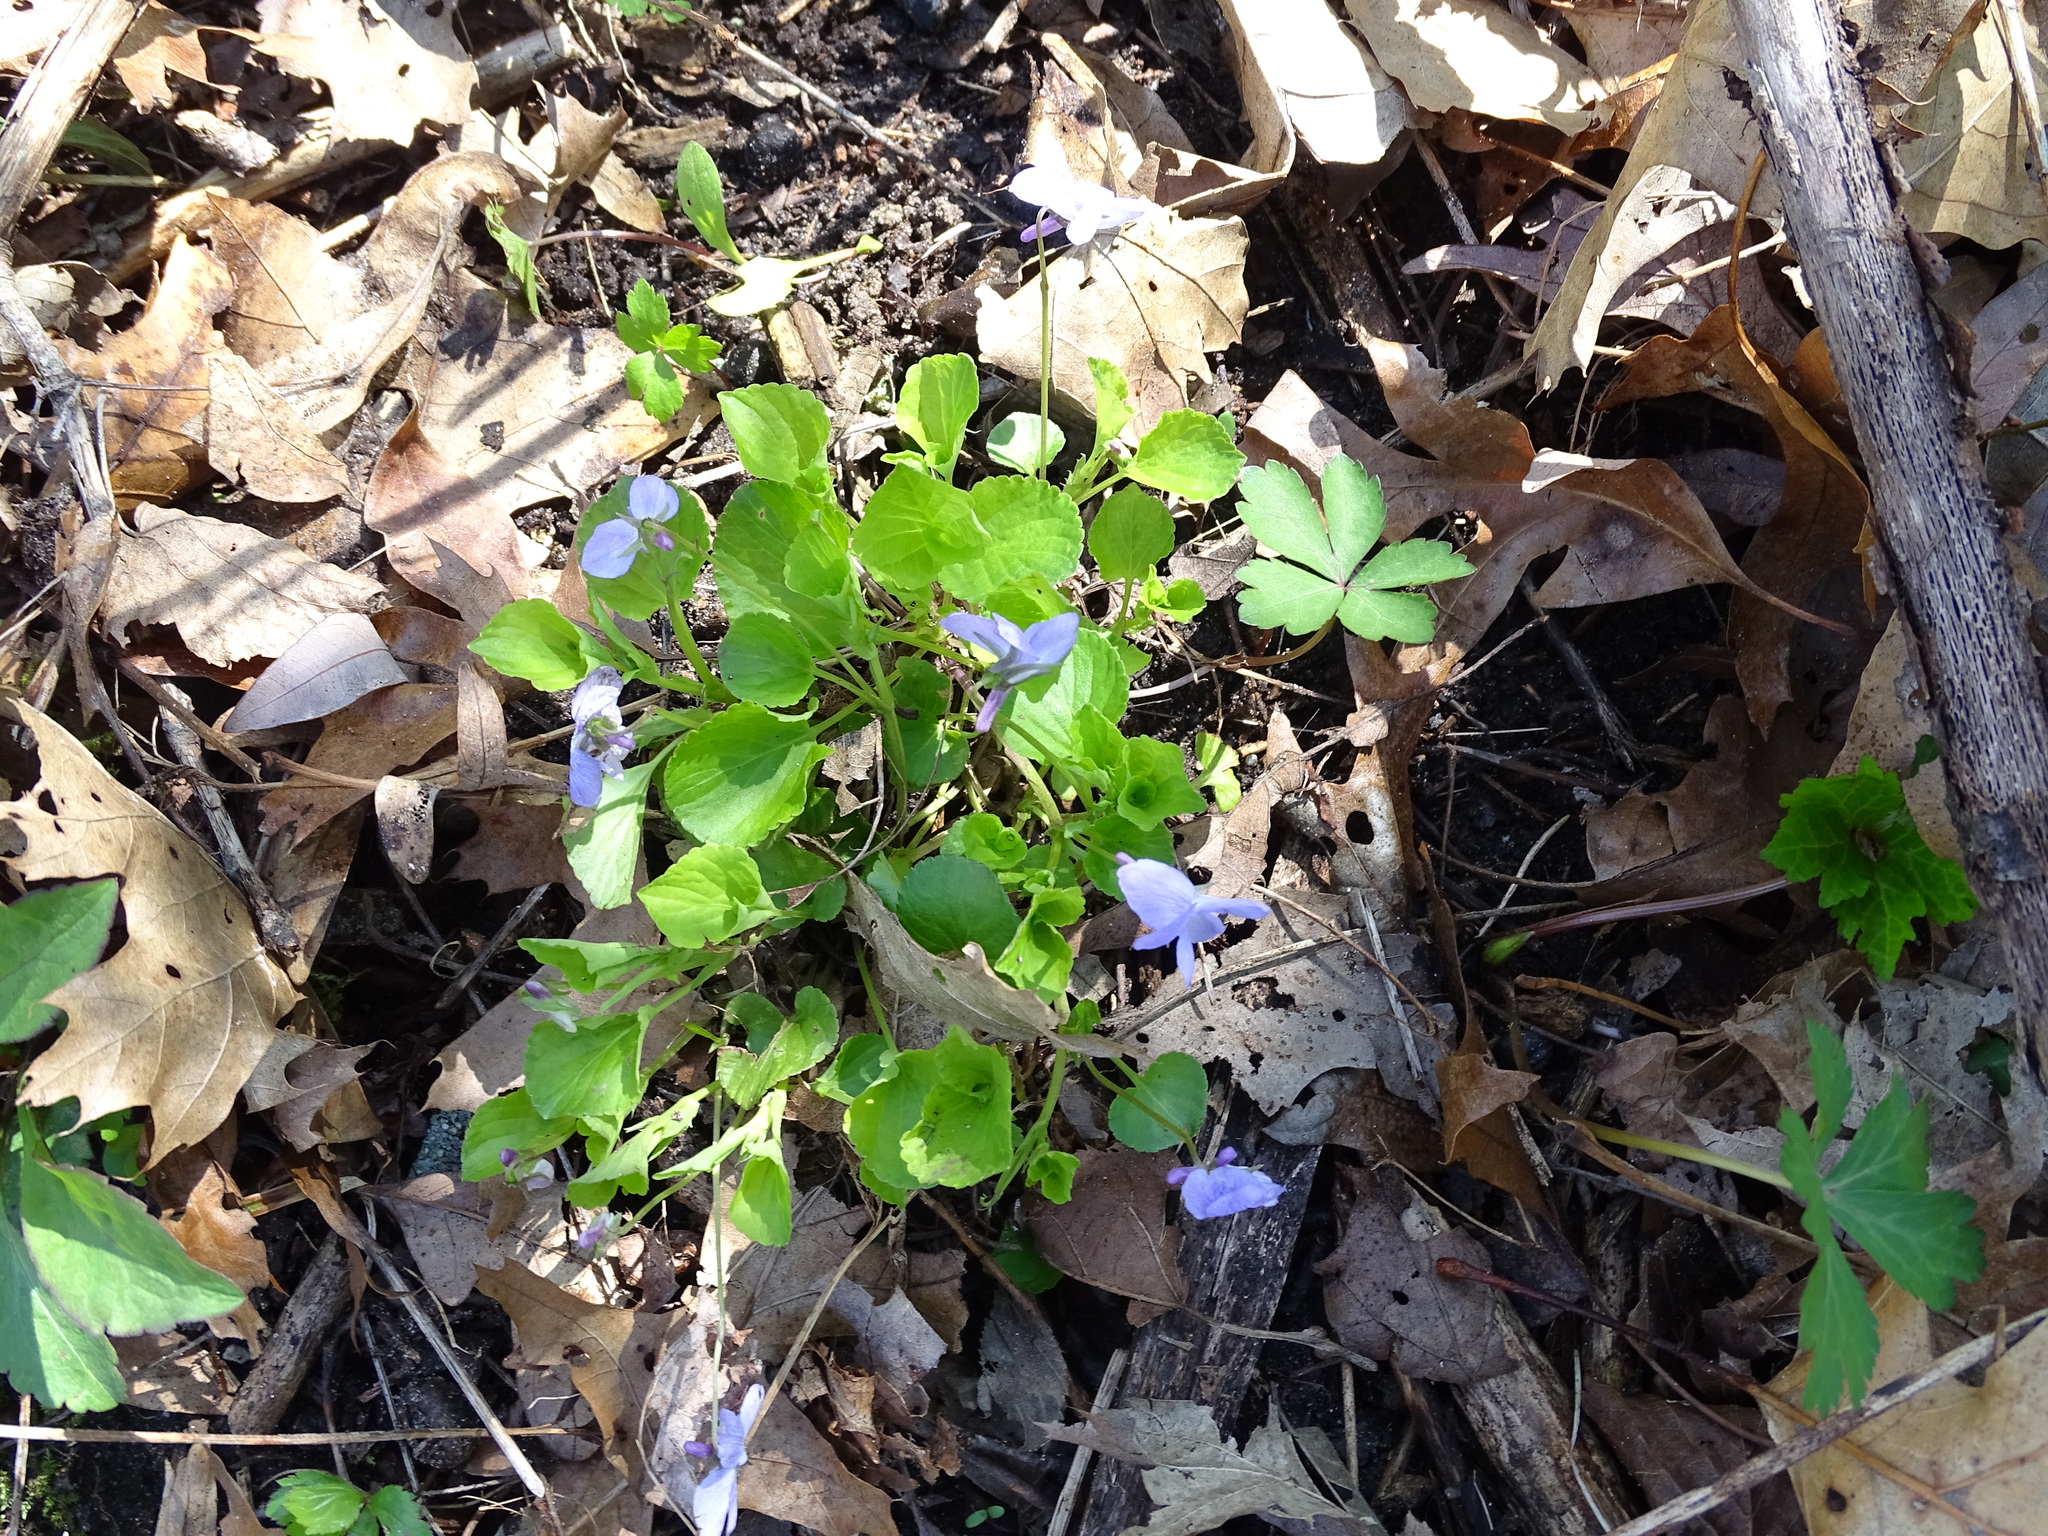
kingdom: Plantae
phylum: Tracheophyta
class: Magnoliopsida
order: Malpighiales
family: Violaceae
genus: Viola
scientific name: Viola labradorica
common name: Labrador violet
